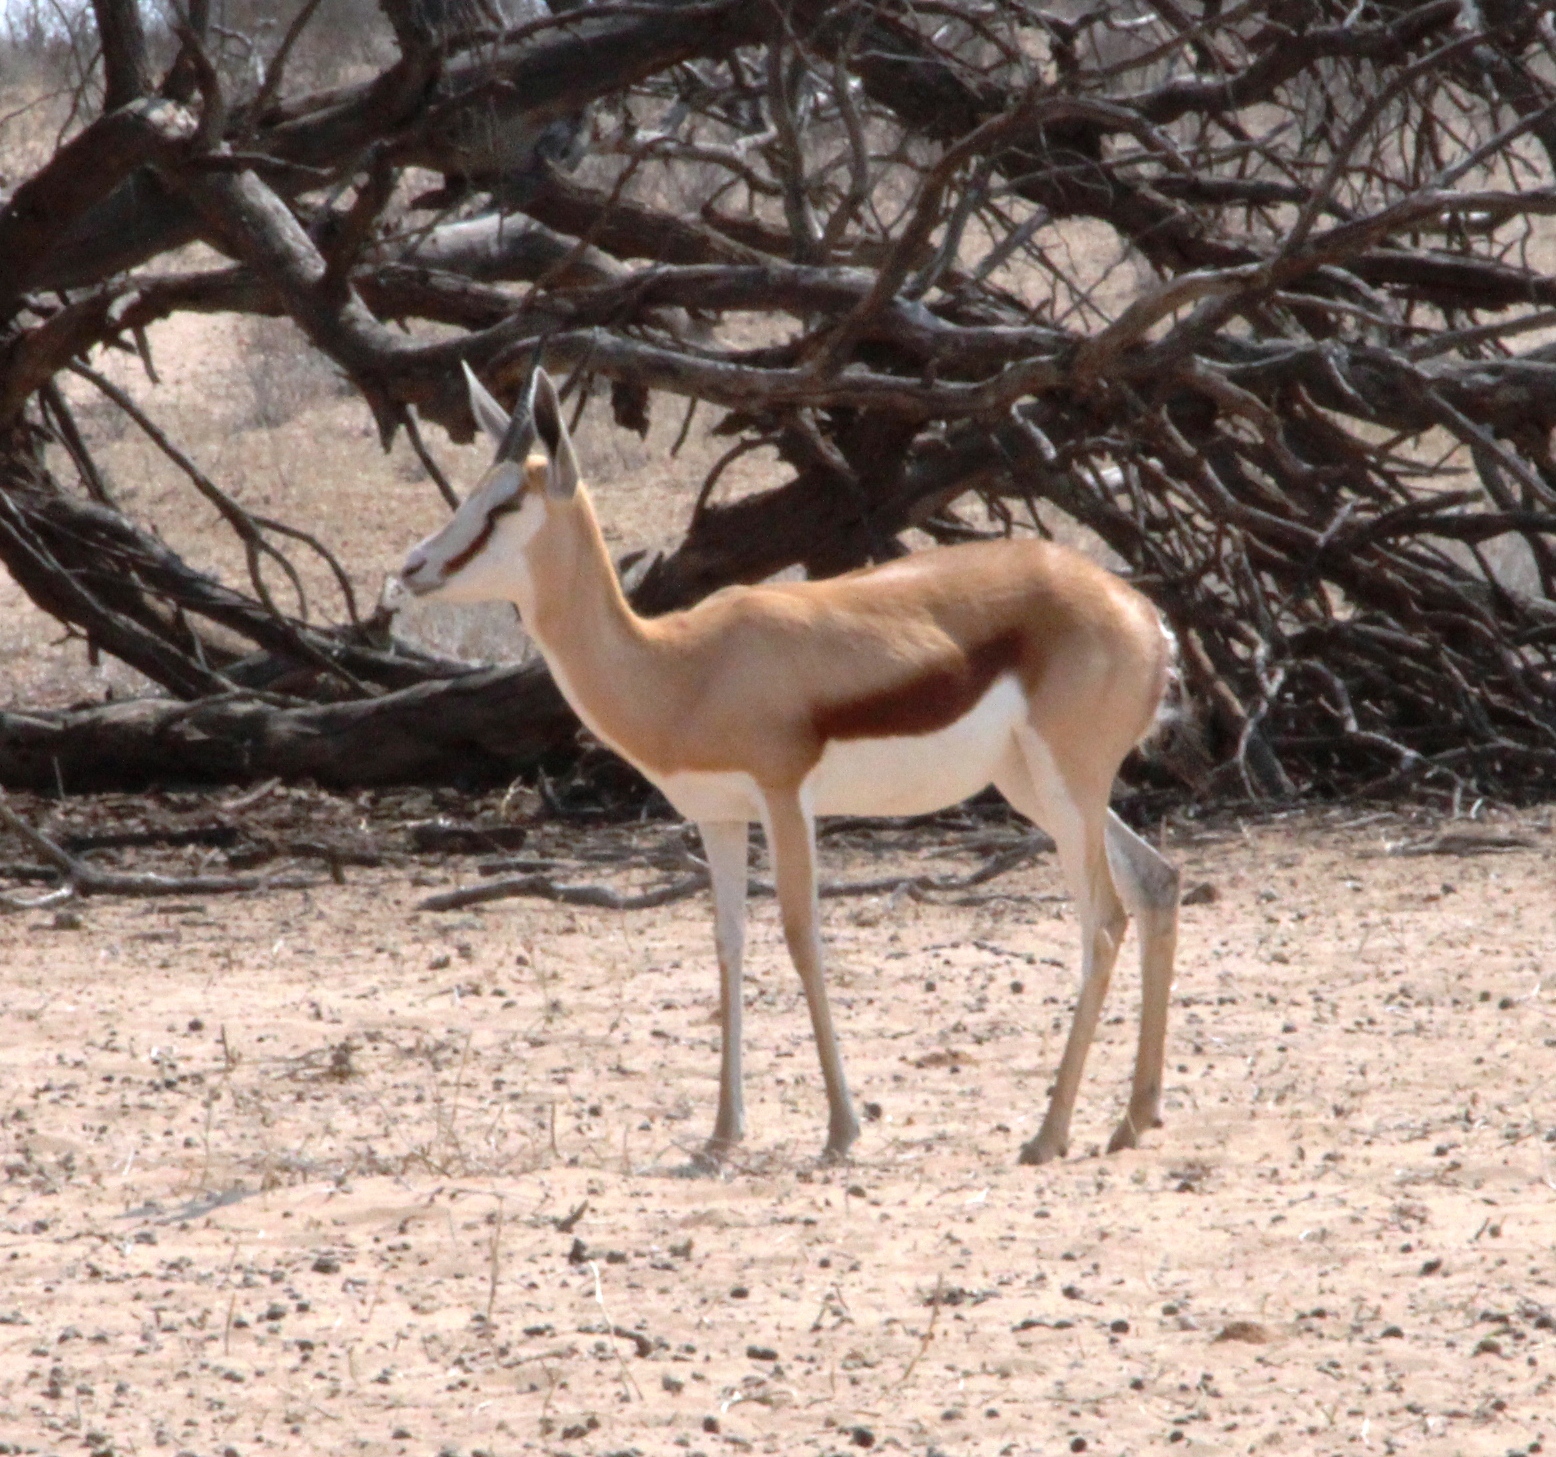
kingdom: Animalia
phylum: Chordata
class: Mammalia
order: Artiodactyla
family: Bovidae
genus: Antidorcas
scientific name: Antidorcas marsupialis
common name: Springbok
